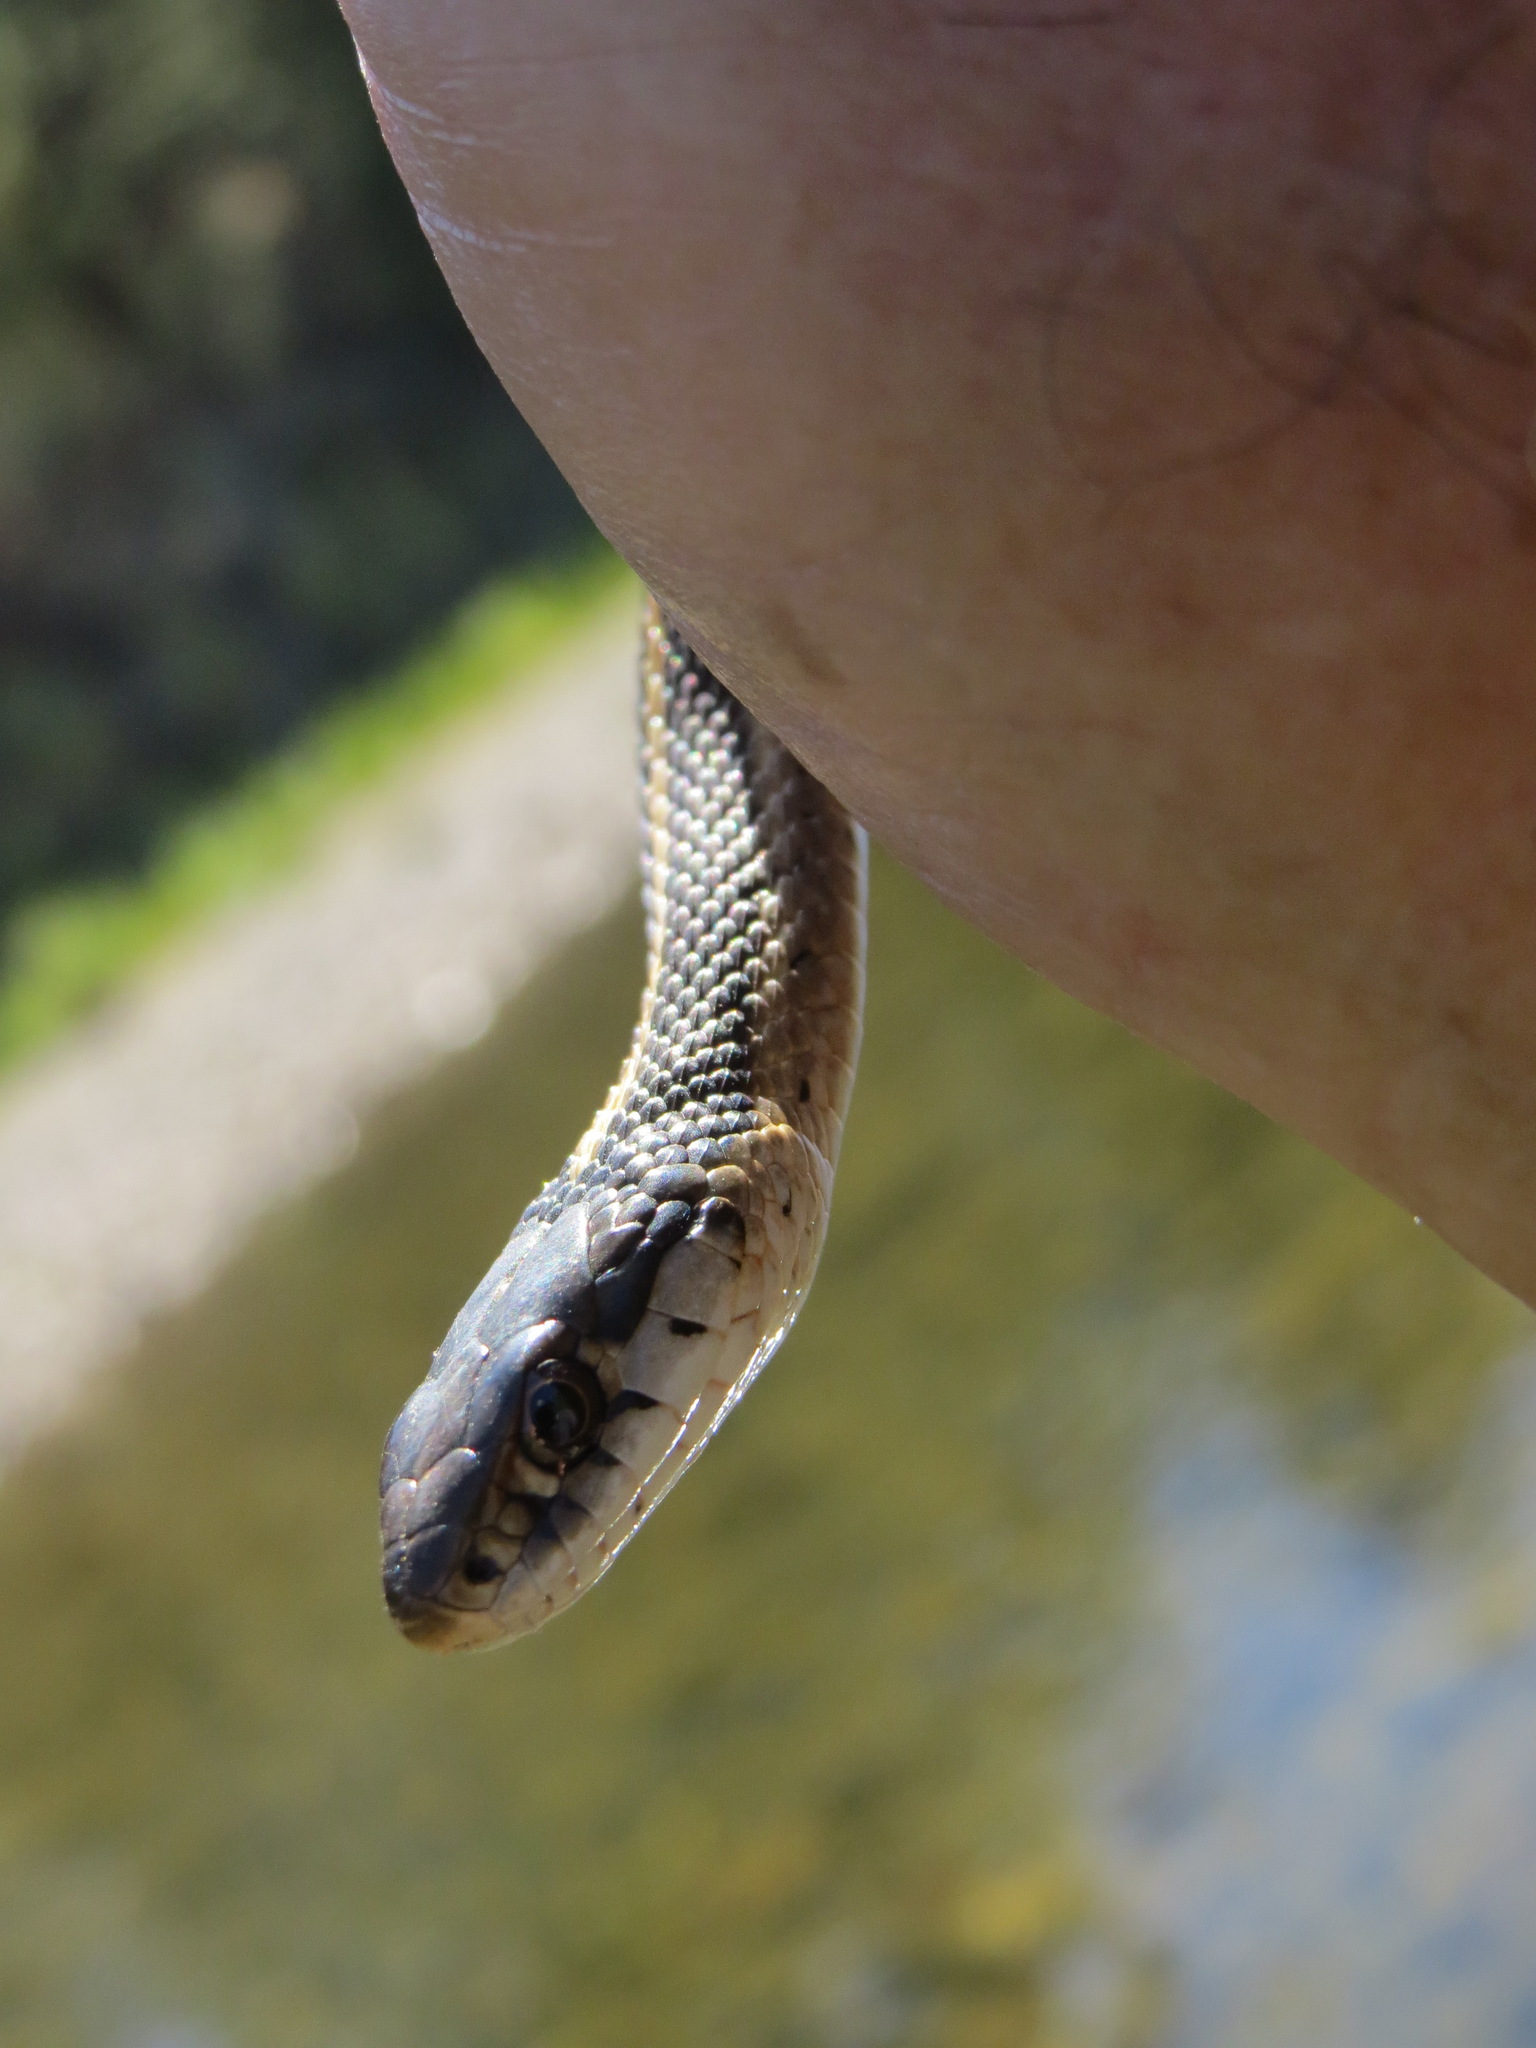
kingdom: Animalia
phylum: Chordata
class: Squamata
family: Colubridae
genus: Thamnophis
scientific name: Thamnophis elegans
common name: Western terrestrial garter snake
